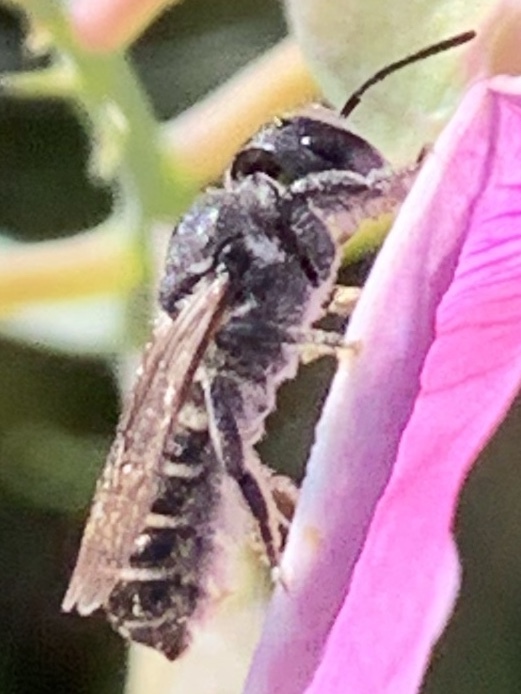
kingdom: Animalia
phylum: Arthropoda
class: Insecta
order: Hymenoptera
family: Megachilidae
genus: Megachile
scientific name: Megachile angelarum
